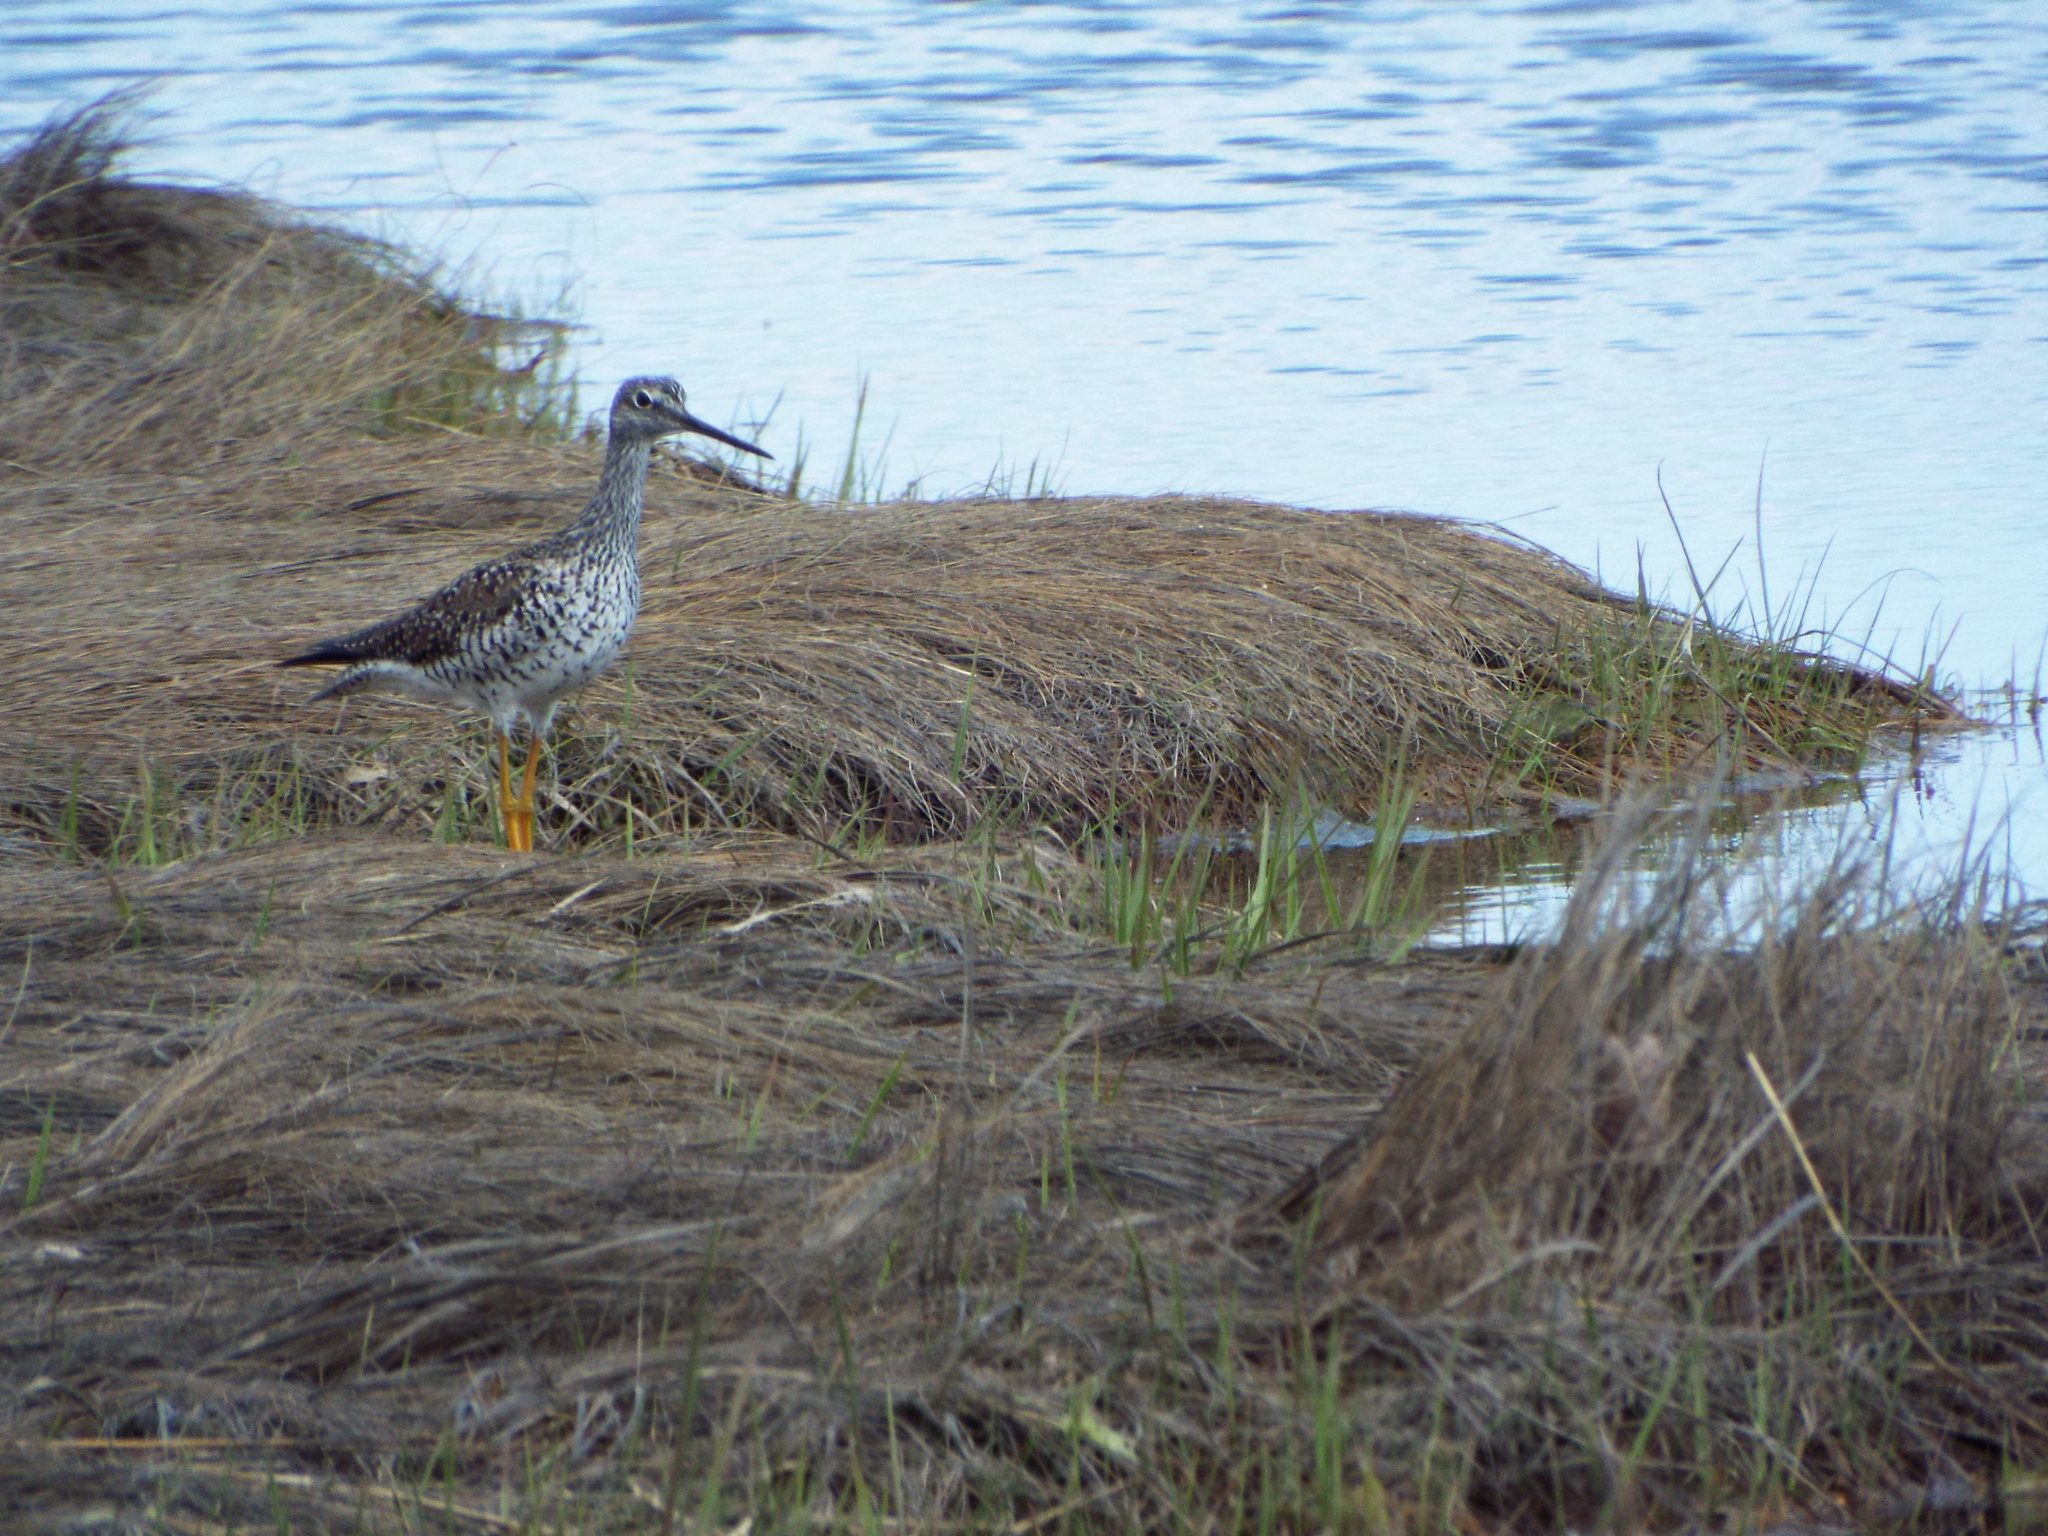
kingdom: Animalia
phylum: Chordata
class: Aves
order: Charadriiformes
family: Scolopacidae
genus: Tringa
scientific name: Tringa melanoleuca
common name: Greater yellowlegs
